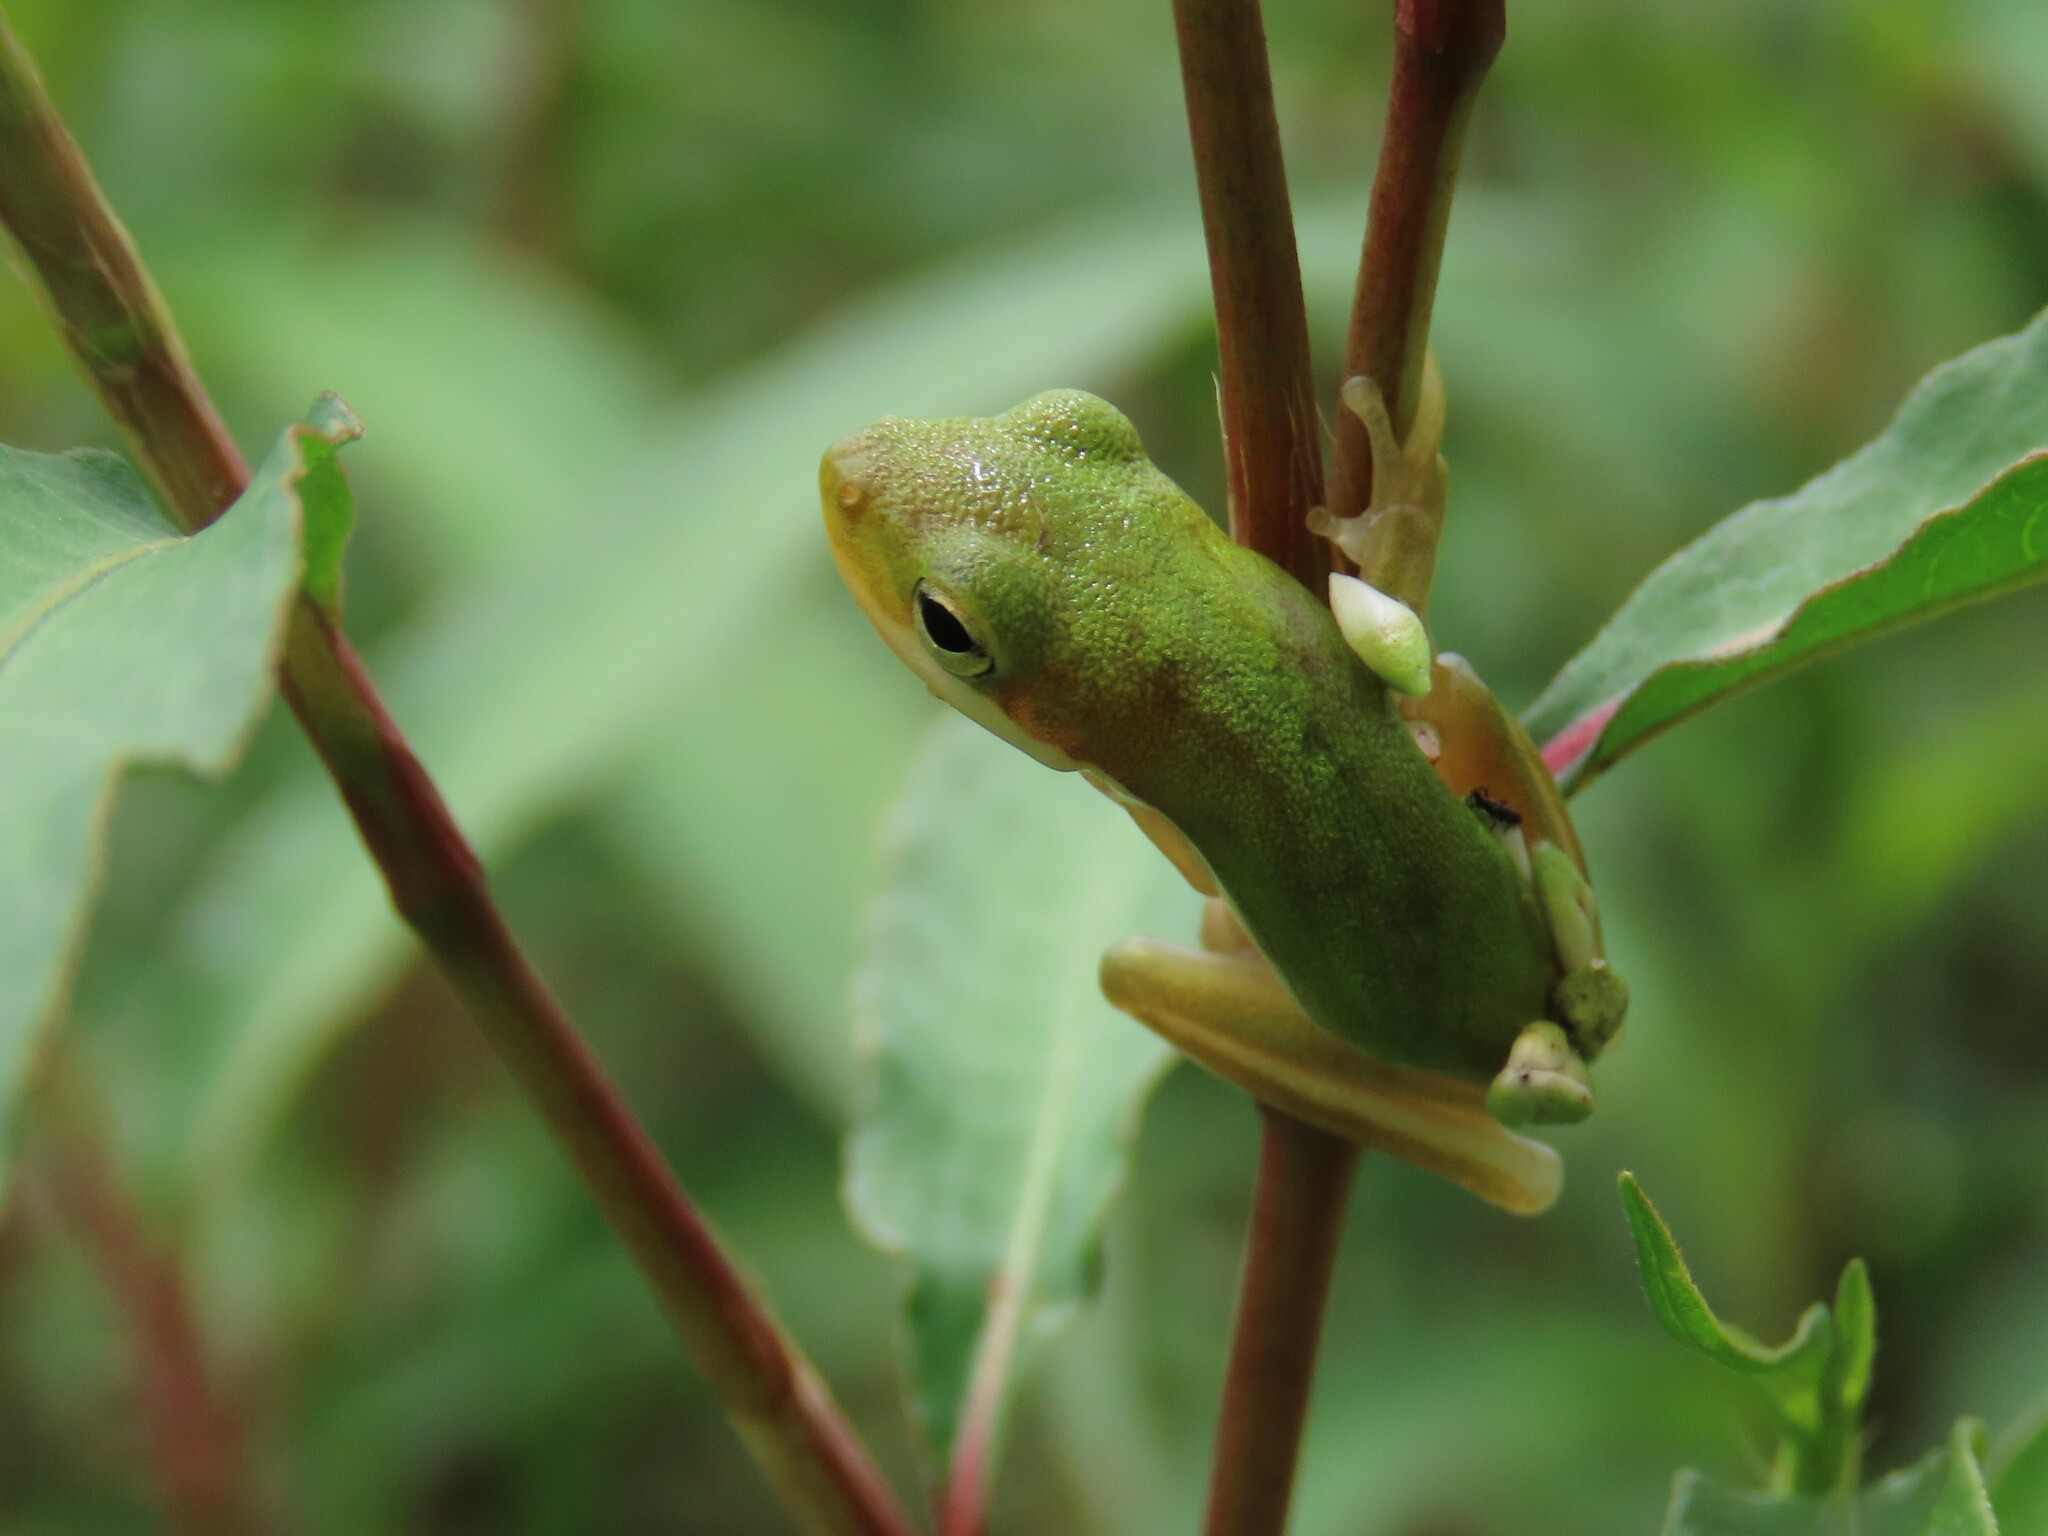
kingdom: Animalia
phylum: Chordata
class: Amphibia
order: Anura
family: Hylidae
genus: Dryophytes
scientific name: Dryophytes cinereus
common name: Green treefrog
